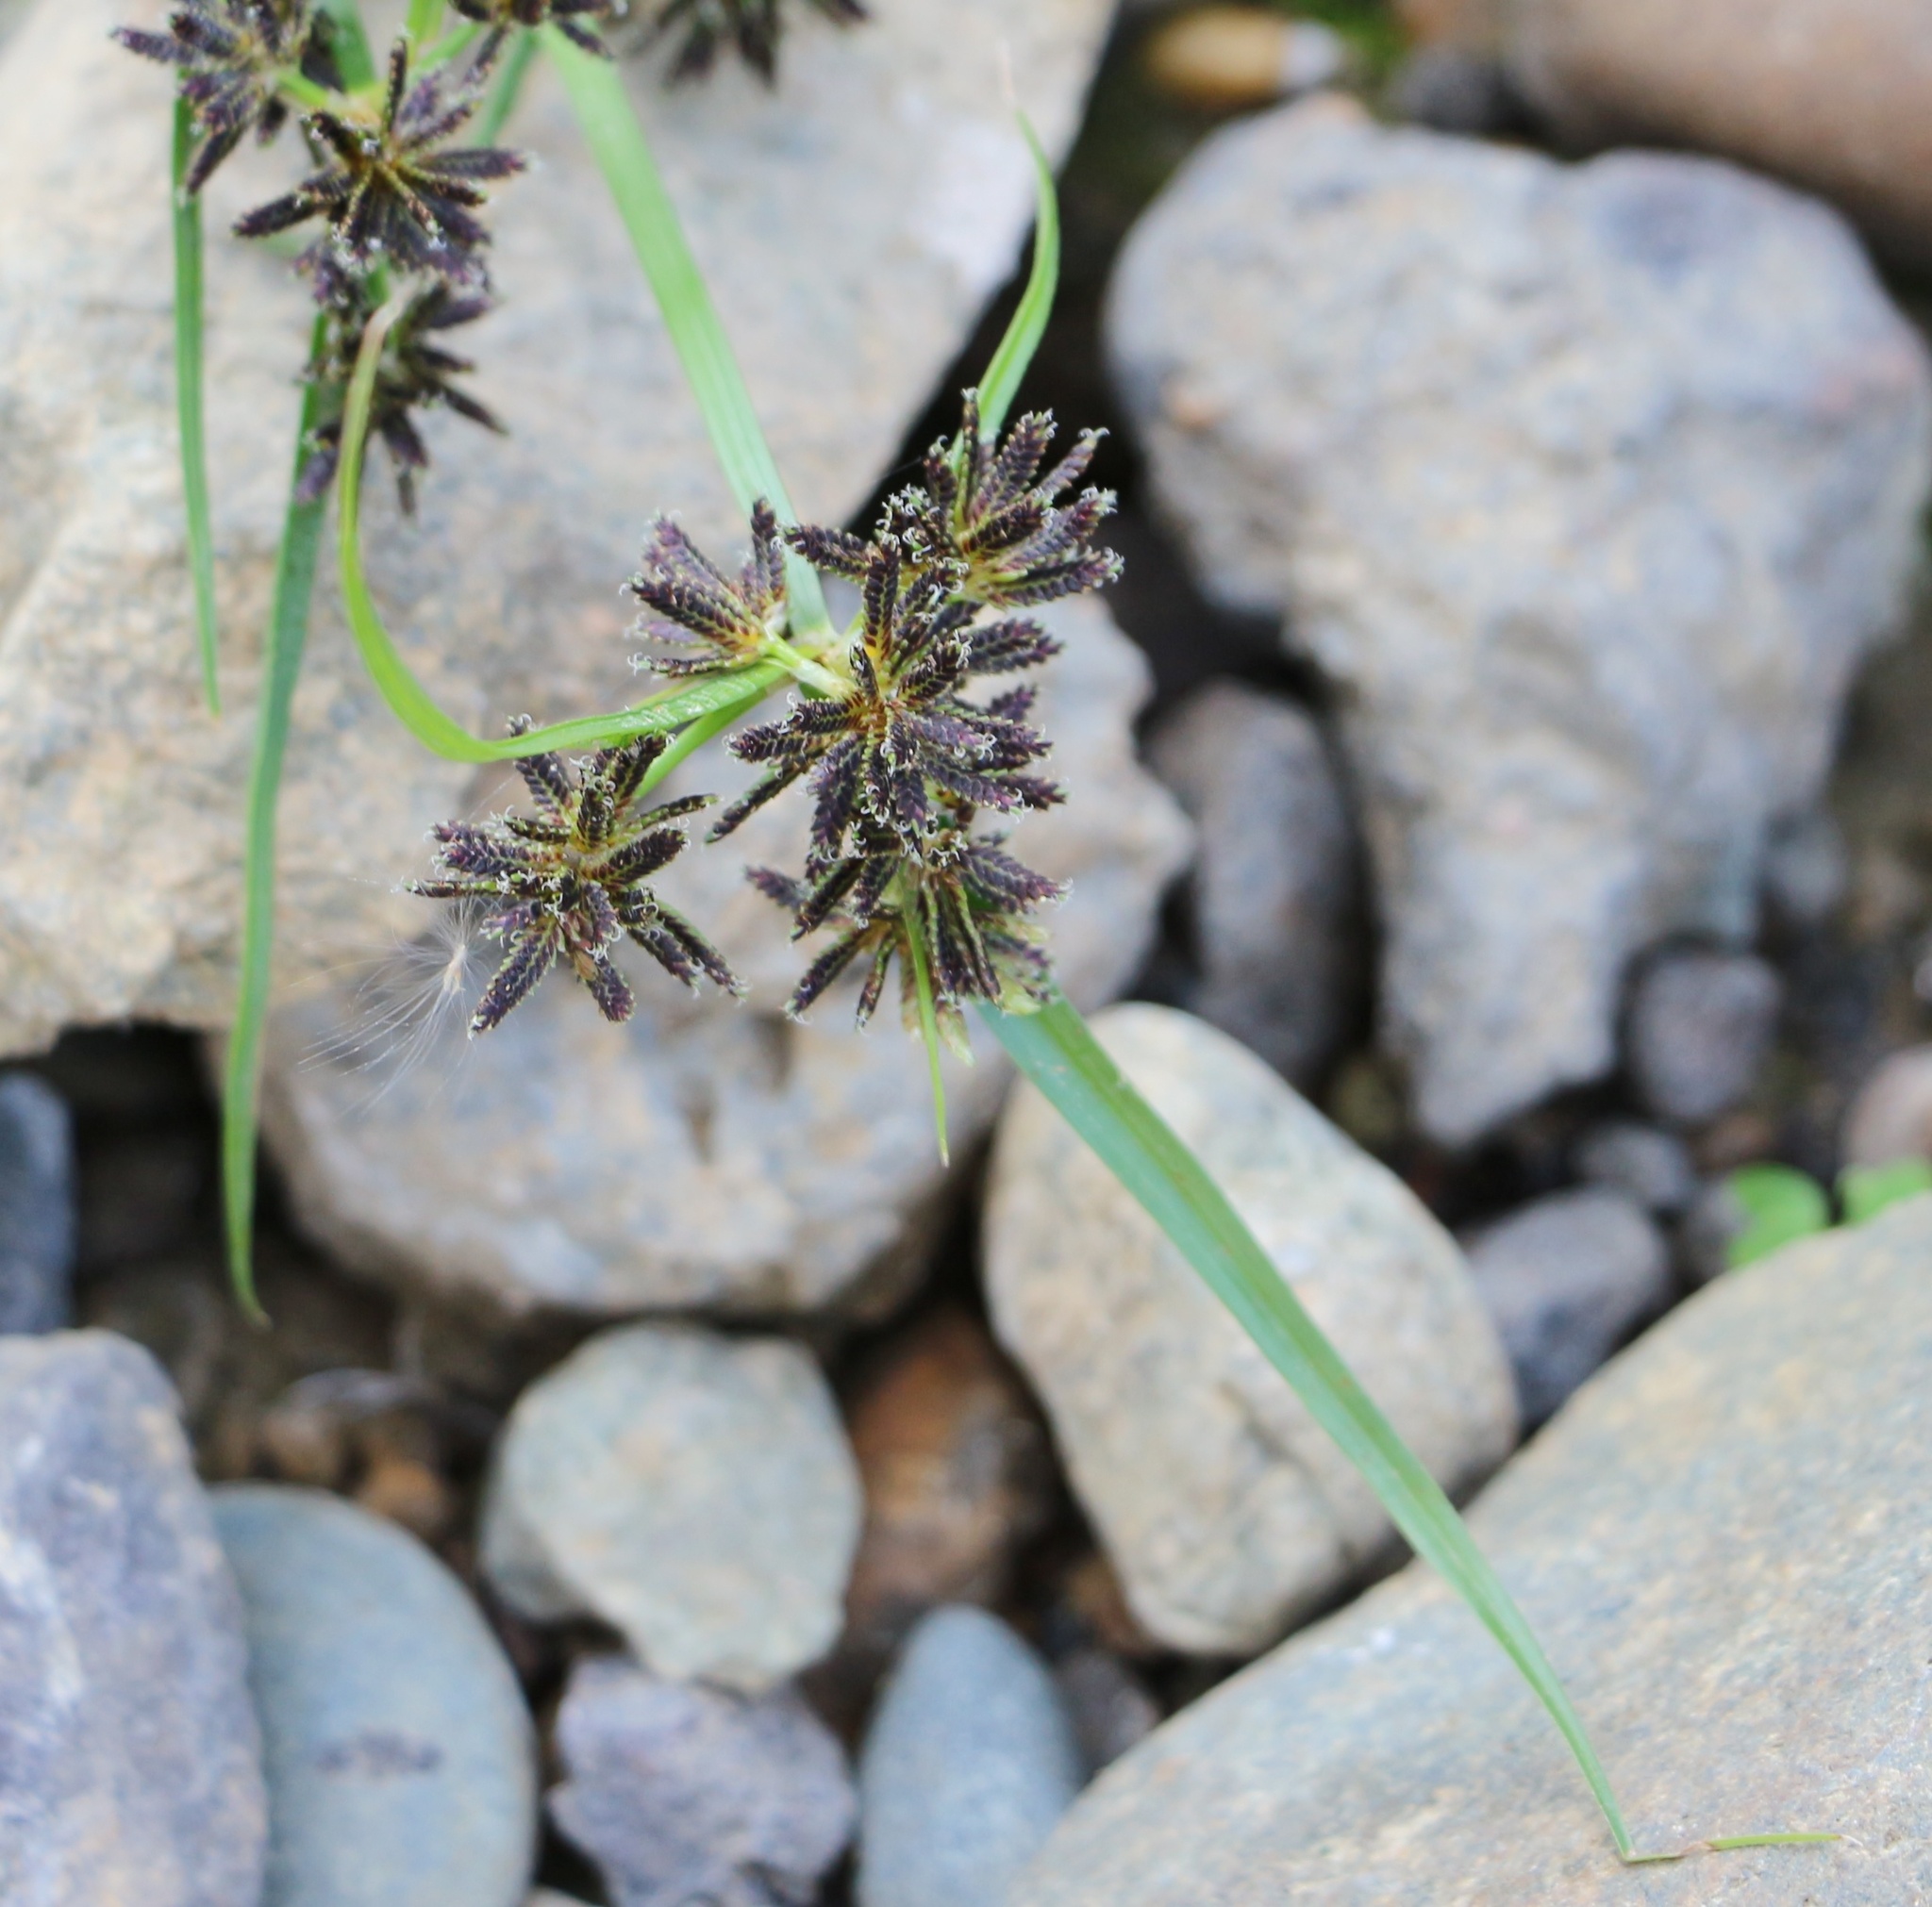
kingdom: Plantae
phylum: Tracheophyta
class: Liliopsida
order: Poales
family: Cyperaceae
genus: Cyperus
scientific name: Cyperus fuscus
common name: Brown galingale
